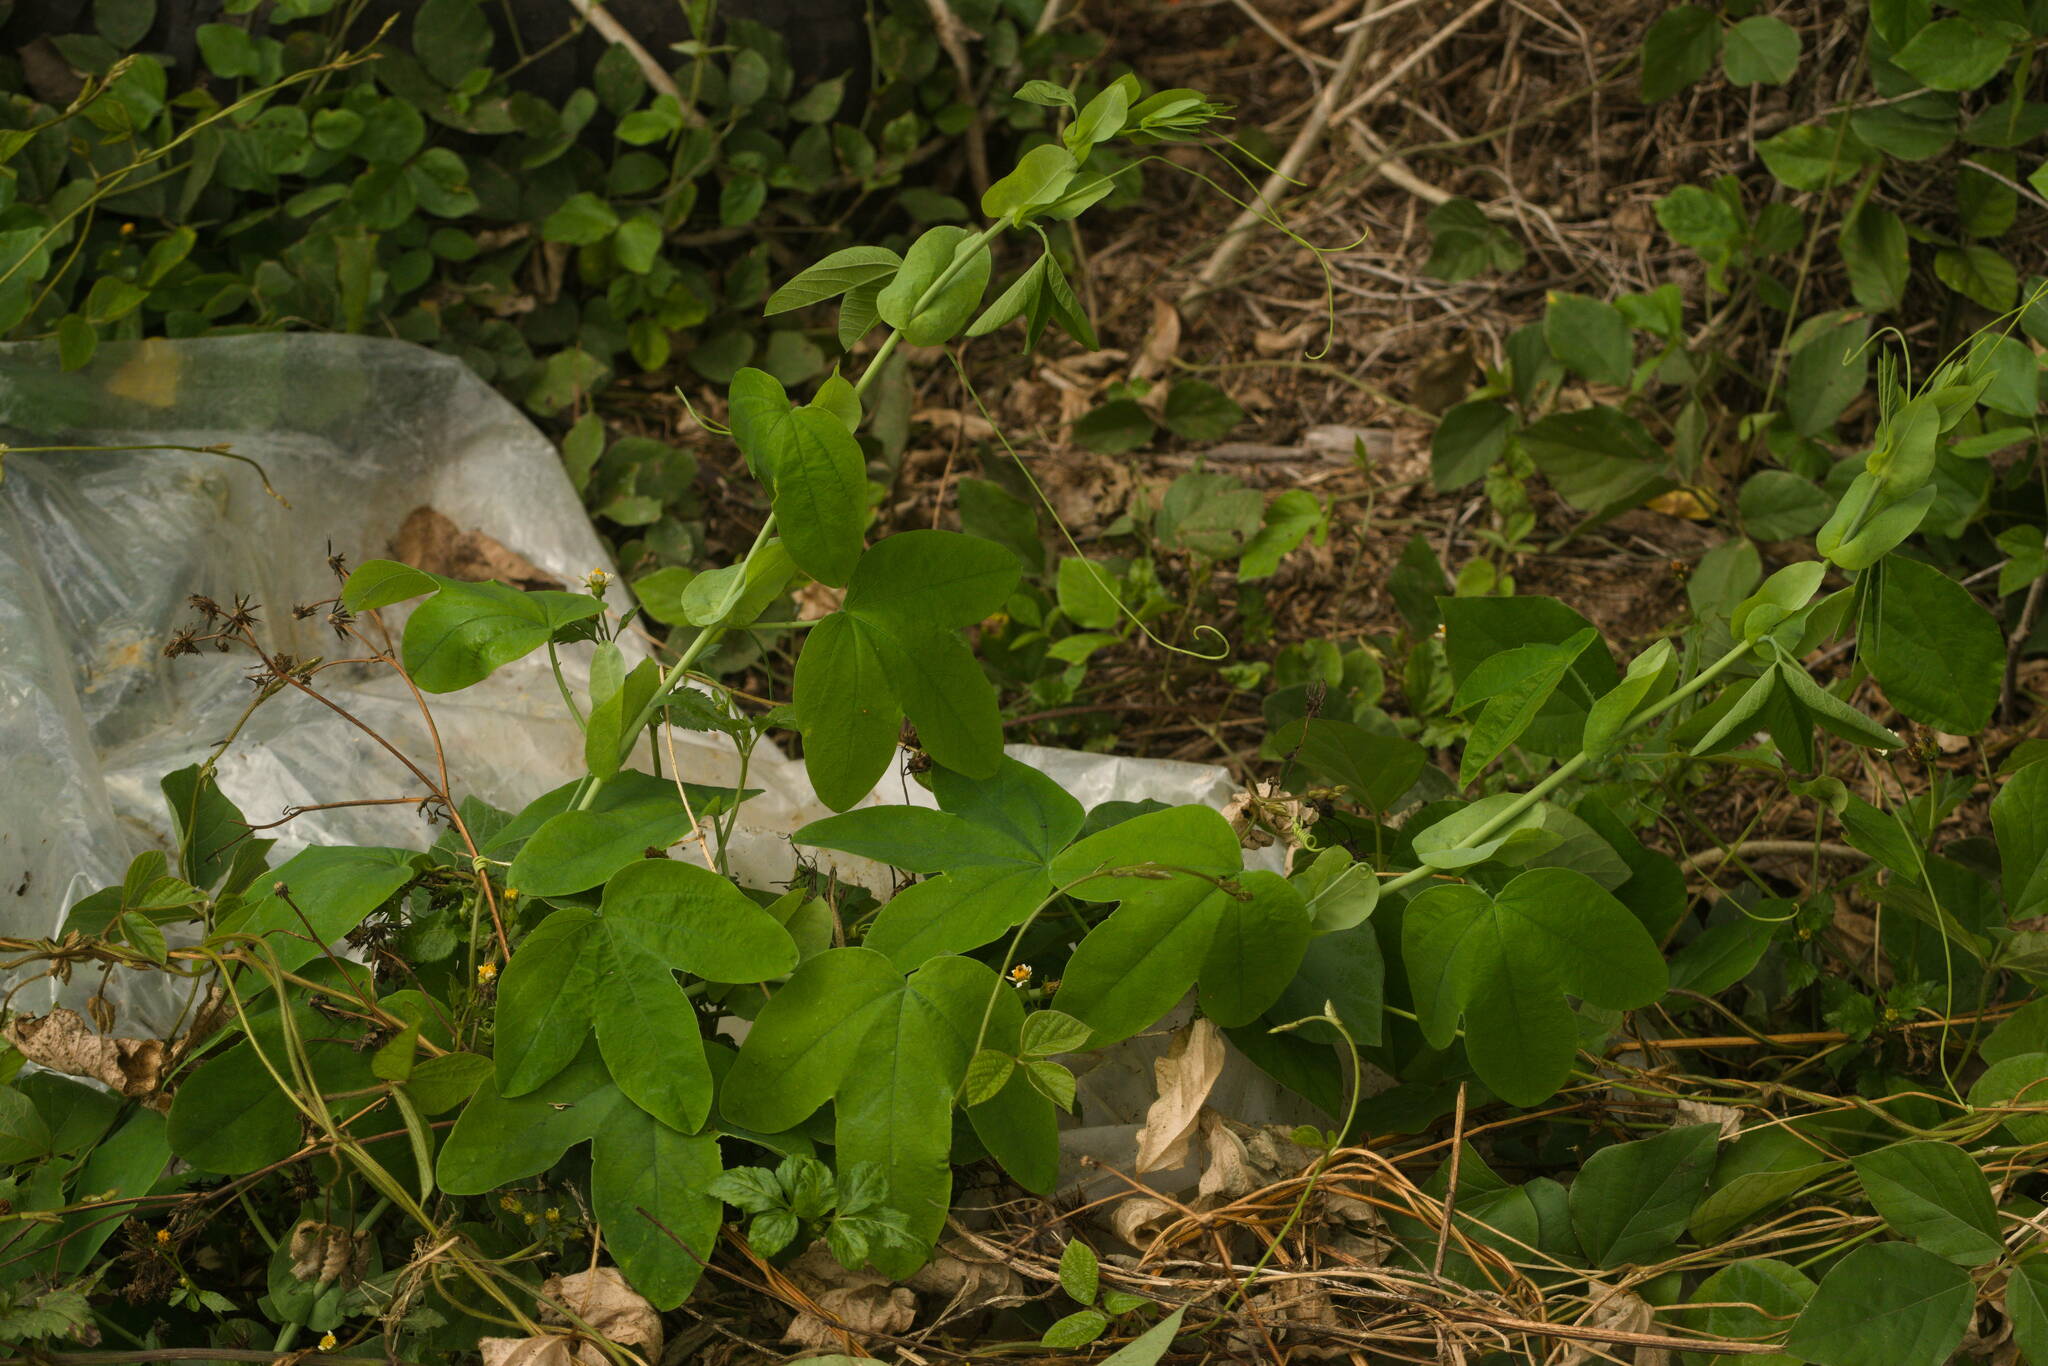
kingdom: Plantae
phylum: Tracheophyta
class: Magnoliopsida
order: Malpighiales
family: Passifloraceae
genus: Passiflora
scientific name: Passiflora subpeltata
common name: White passionflower
